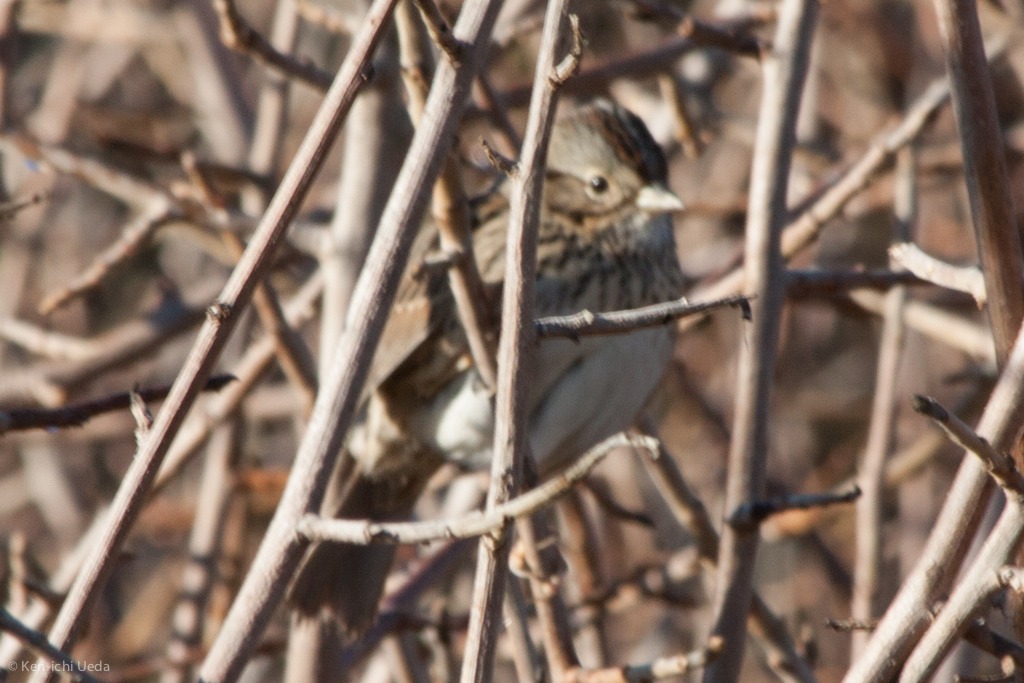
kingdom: Animalia
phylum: Chordata
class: Aves
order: Passeriformes
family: Passerellidae
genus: Melospiza
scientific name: Melospiza lincolnii
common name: Lincoln's sparrow
